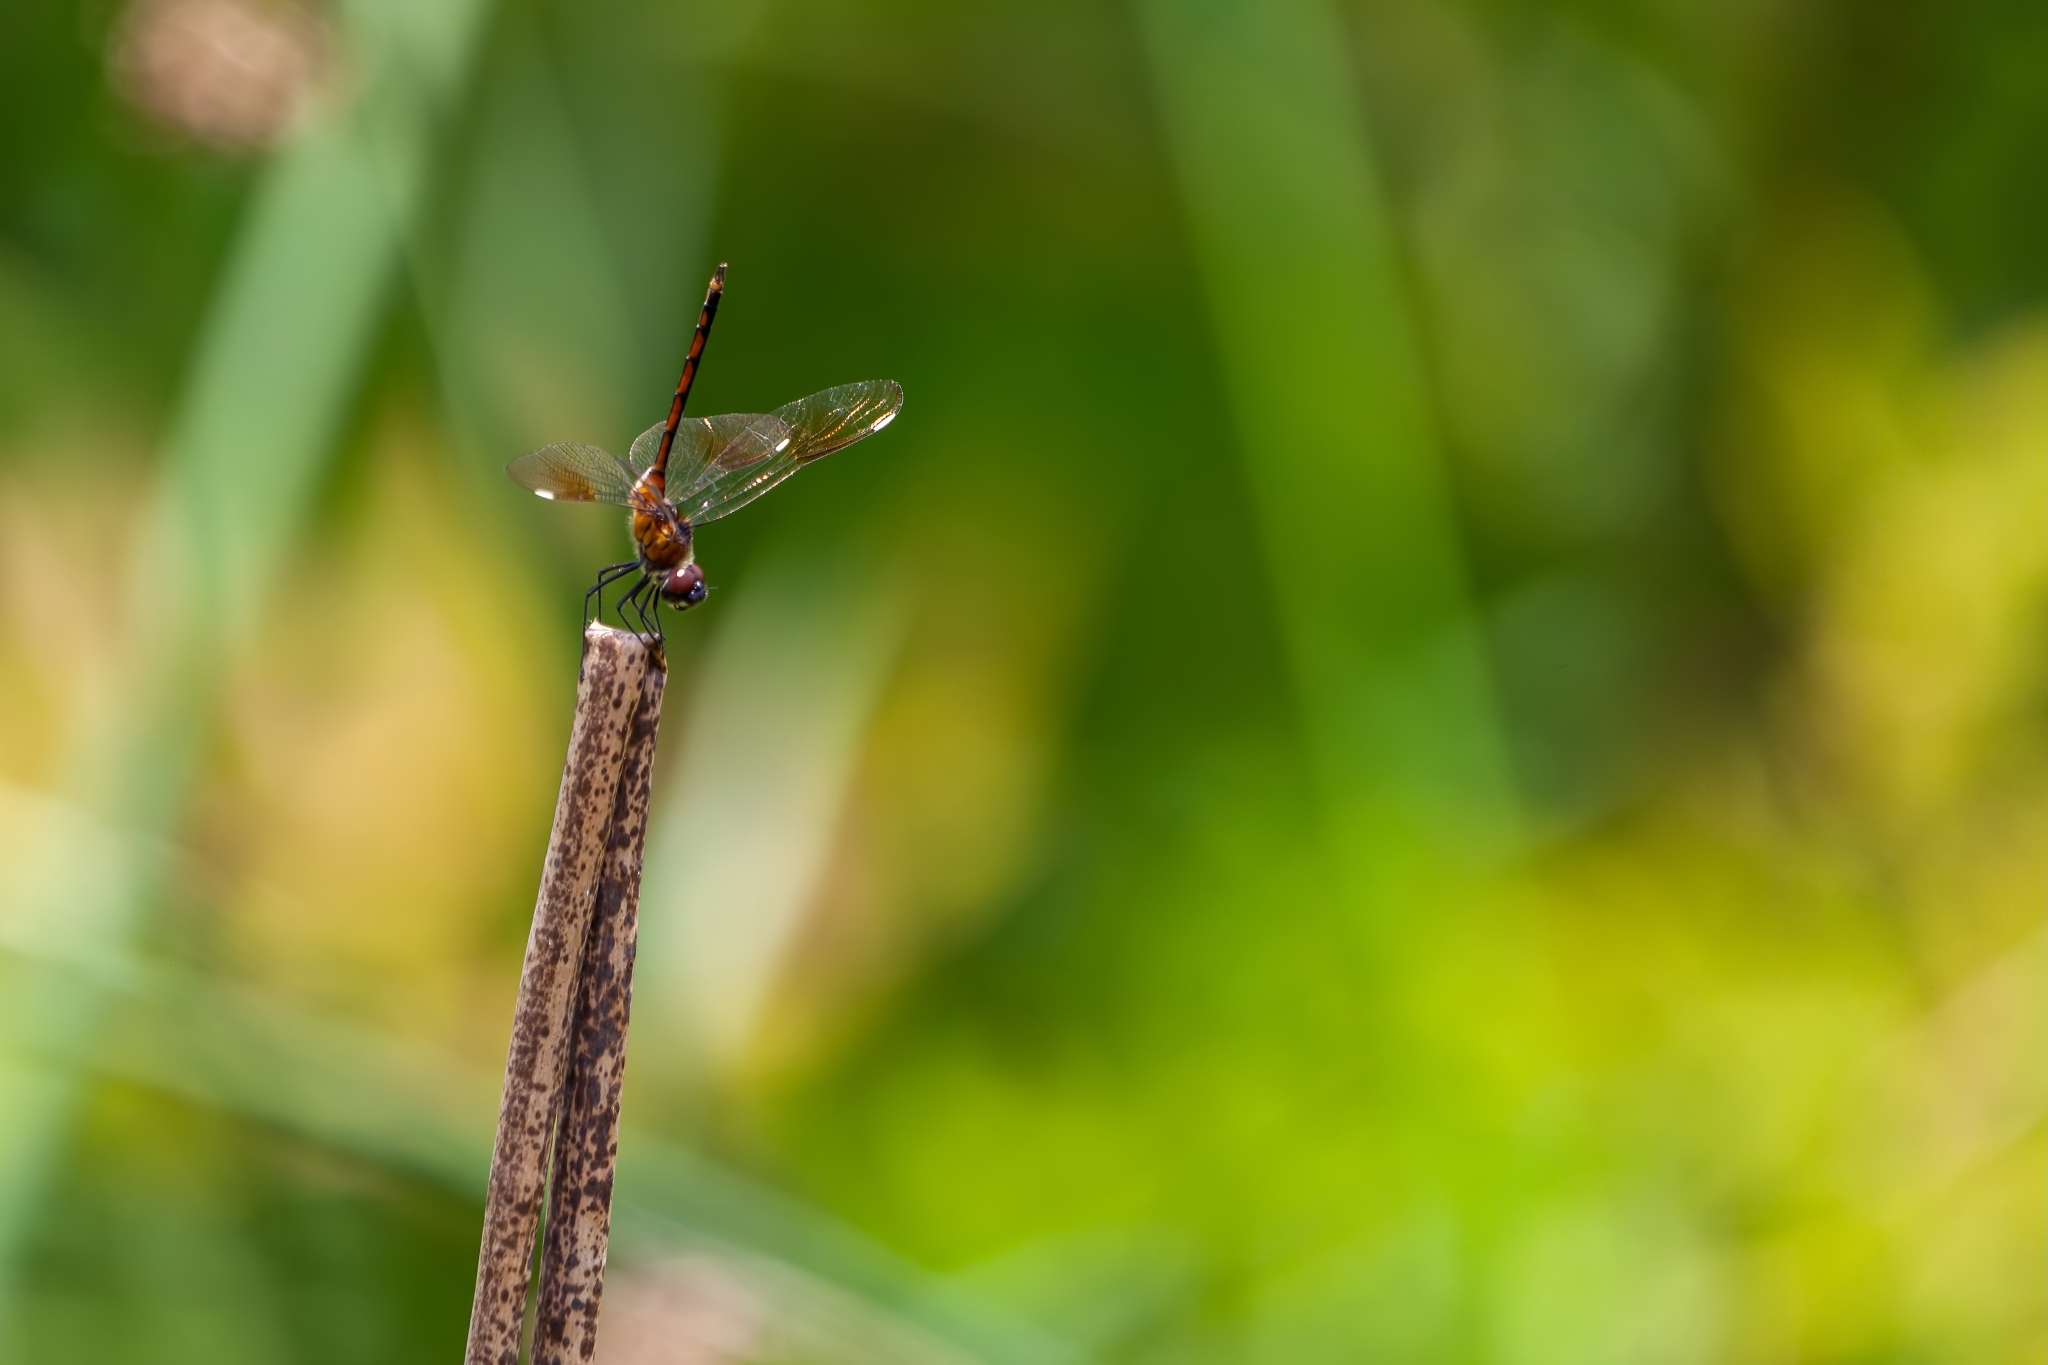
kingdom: Animalia
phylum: Arthropoda
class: Insecta
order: Odonata
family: Libellulidae
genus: Brachymesia
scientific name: Brachymesia gravida
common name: Four-spotted pennant
